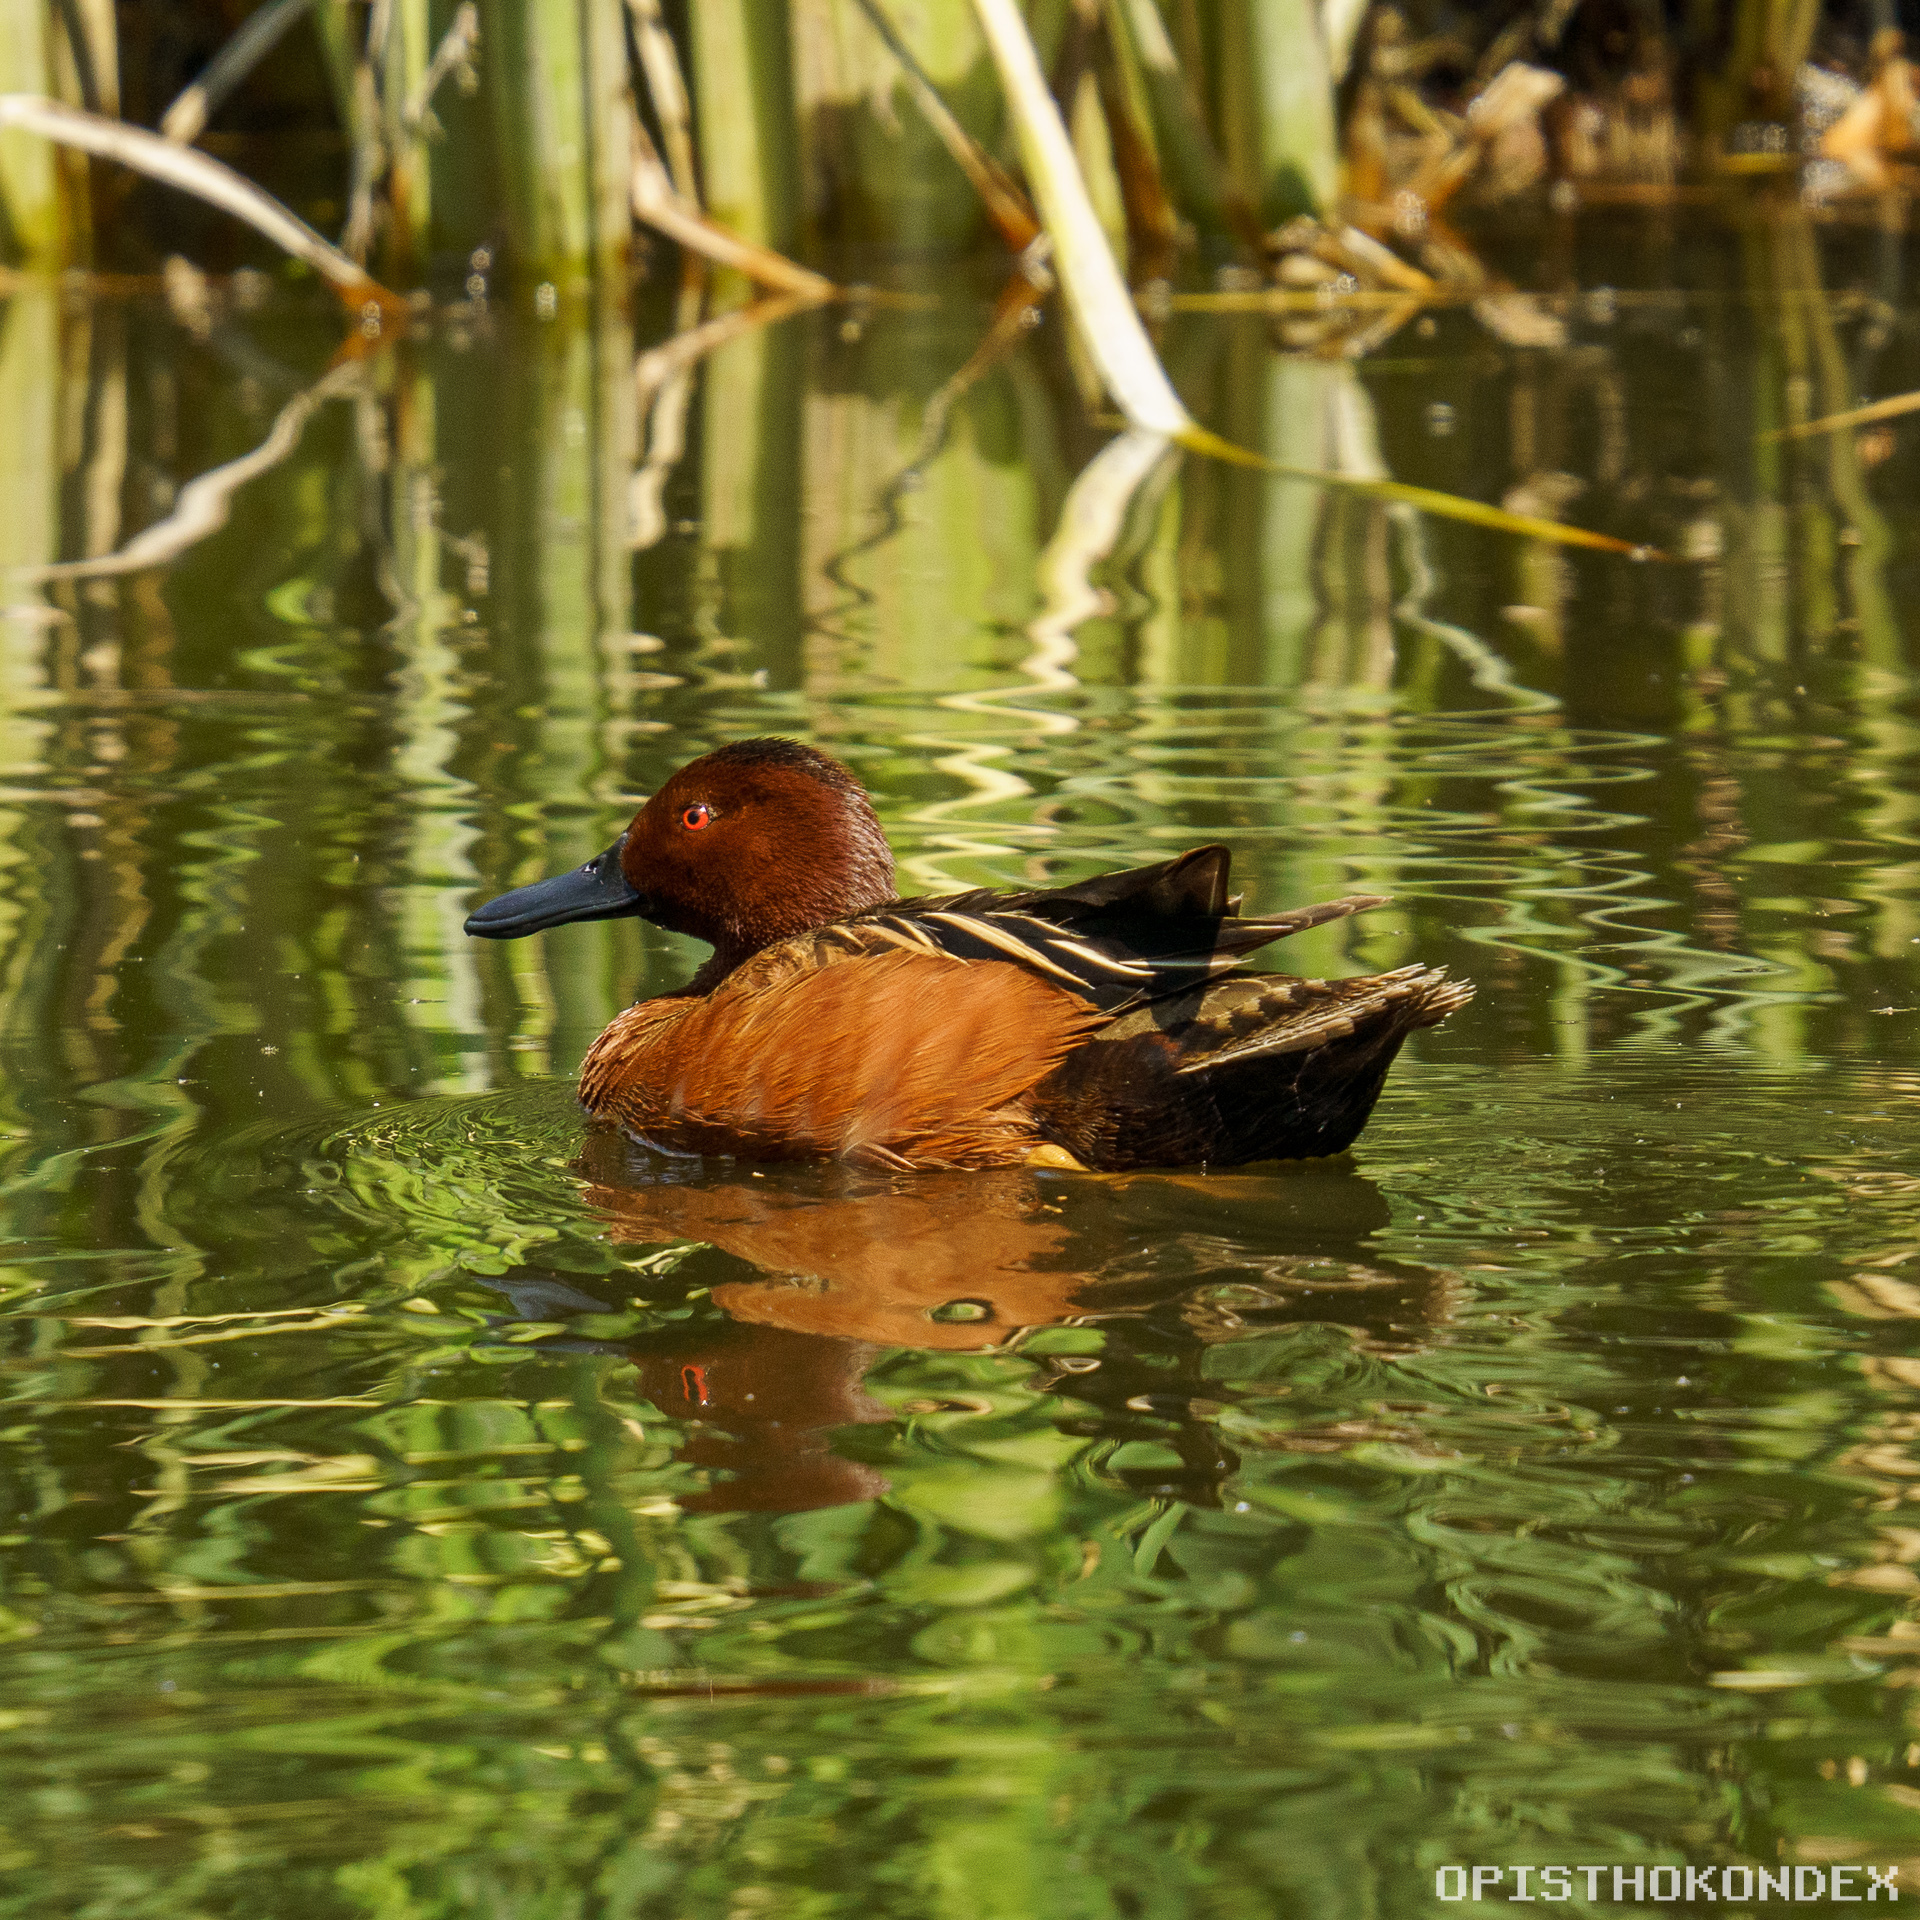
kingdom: Animalia
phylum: Chordata
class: Aves
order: Anseriformes
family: Anatidae
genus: Spatula
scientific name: Spatula cyanoptera
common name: Cinnamon teal
